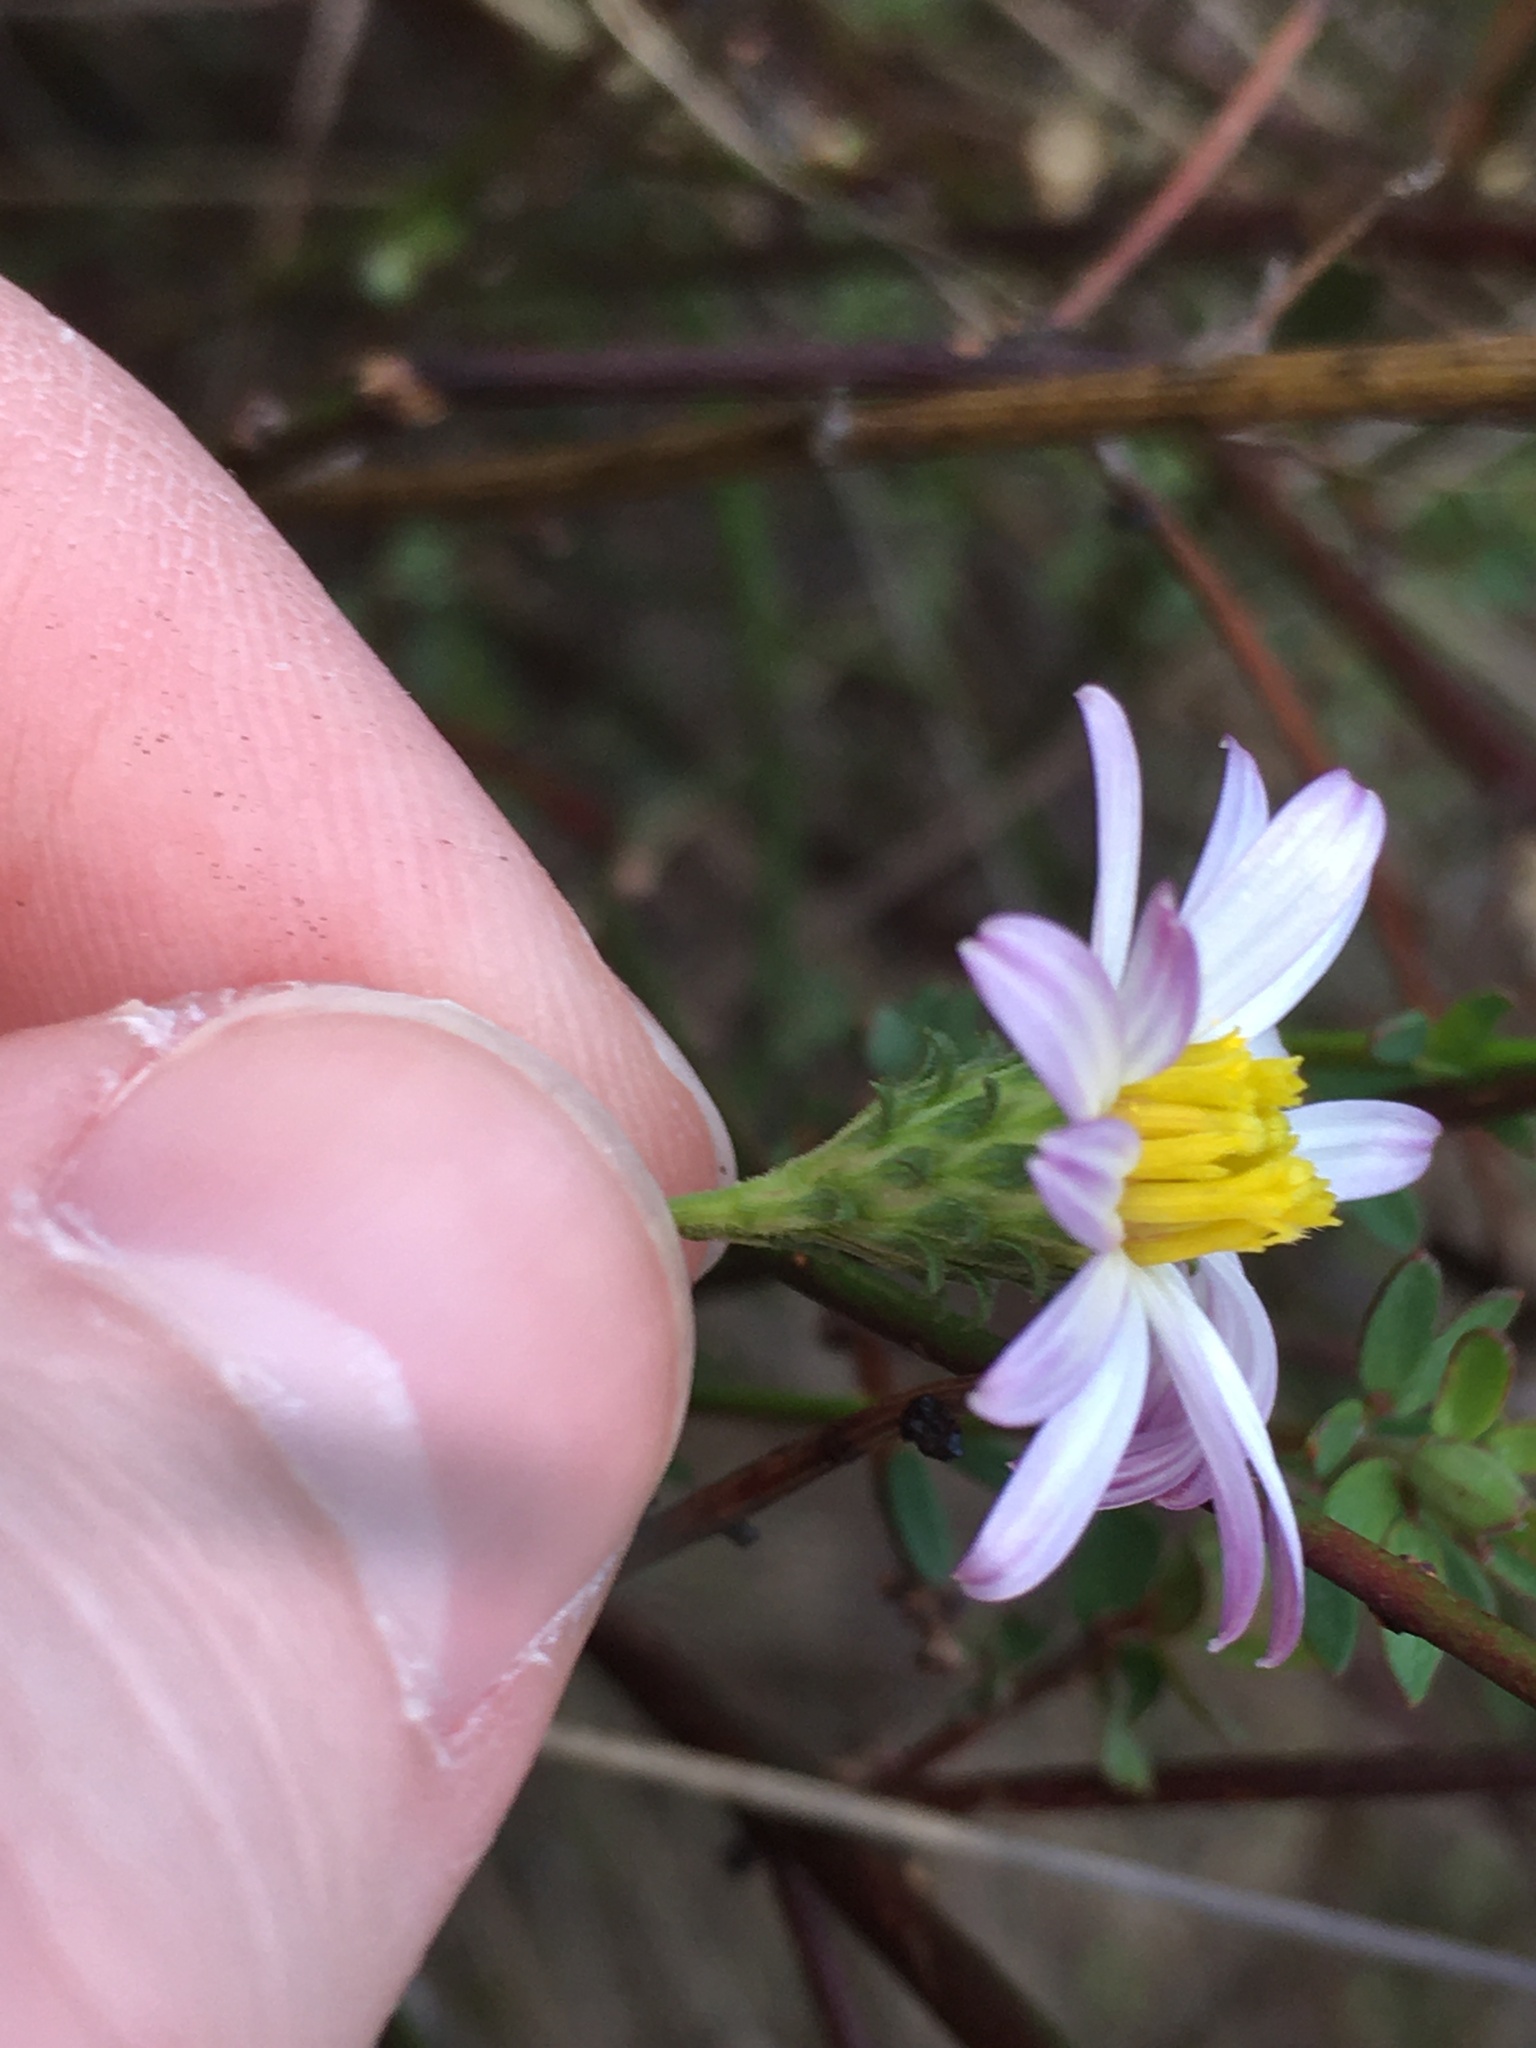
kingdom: Plantae
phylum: Tracheophyta
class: Magnoliopsida
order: Asterales
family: Asteraceae
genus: Corethrogyne
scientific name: Corethrogyne filaginifolia
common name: Sand-aster
